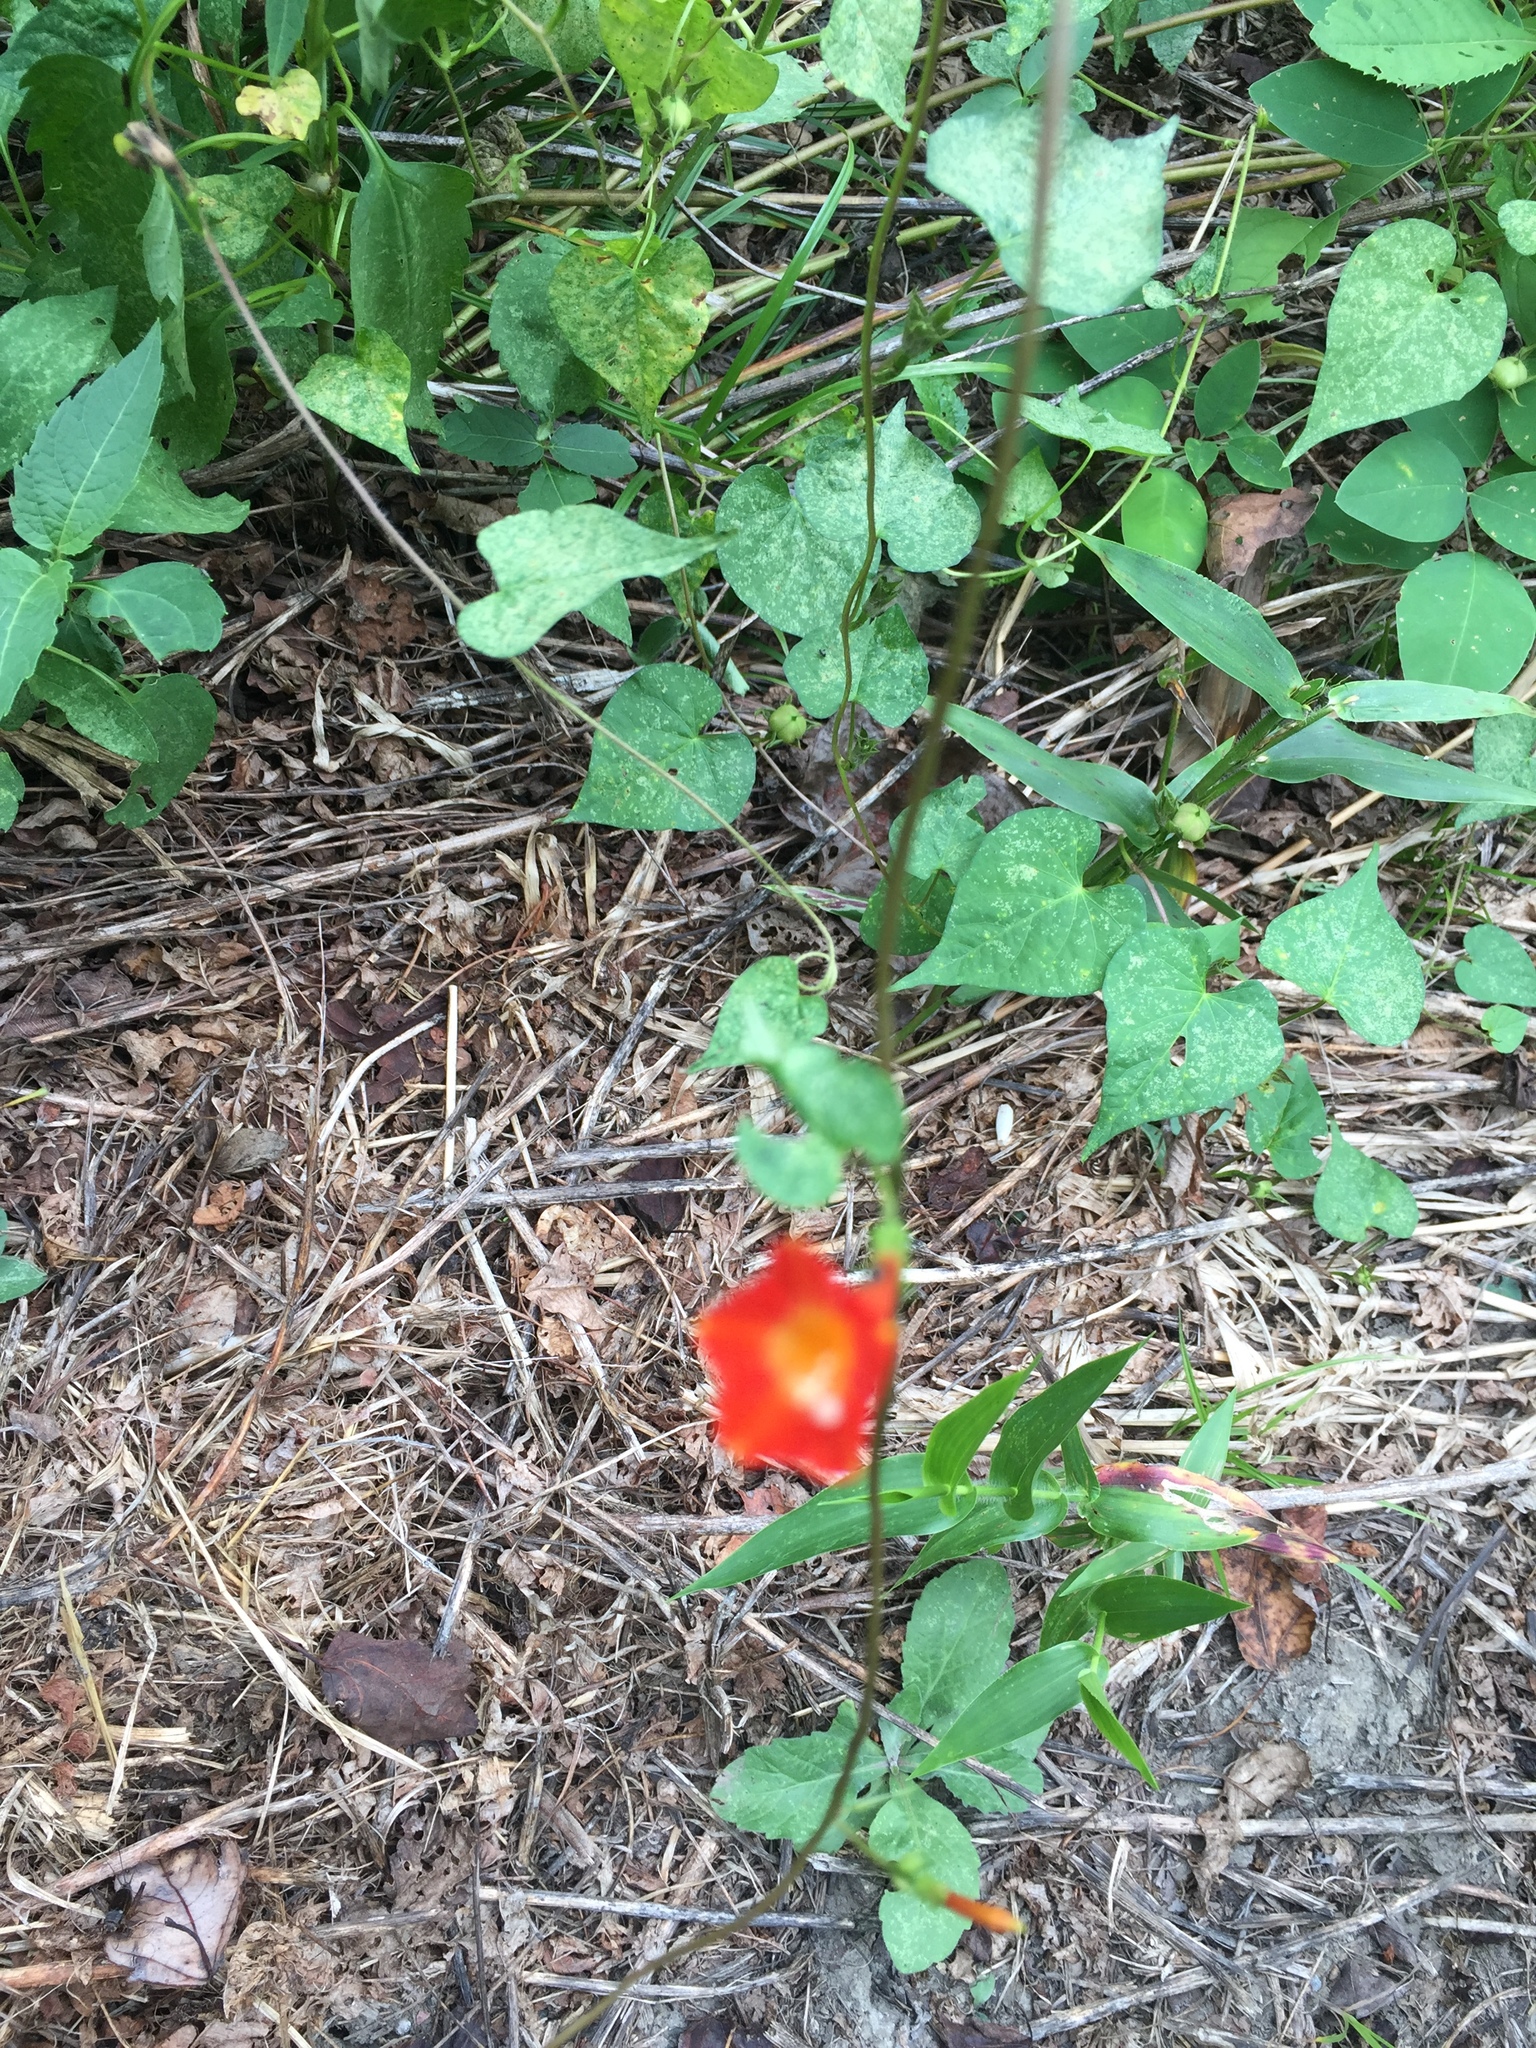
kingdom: Plantae
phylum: Tracheophyta
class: Magnoliopsida
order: Solanales
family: Convolvulaceae
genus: Ipomoea
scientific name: Ipomoea coccinea
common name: Red morning-glory
